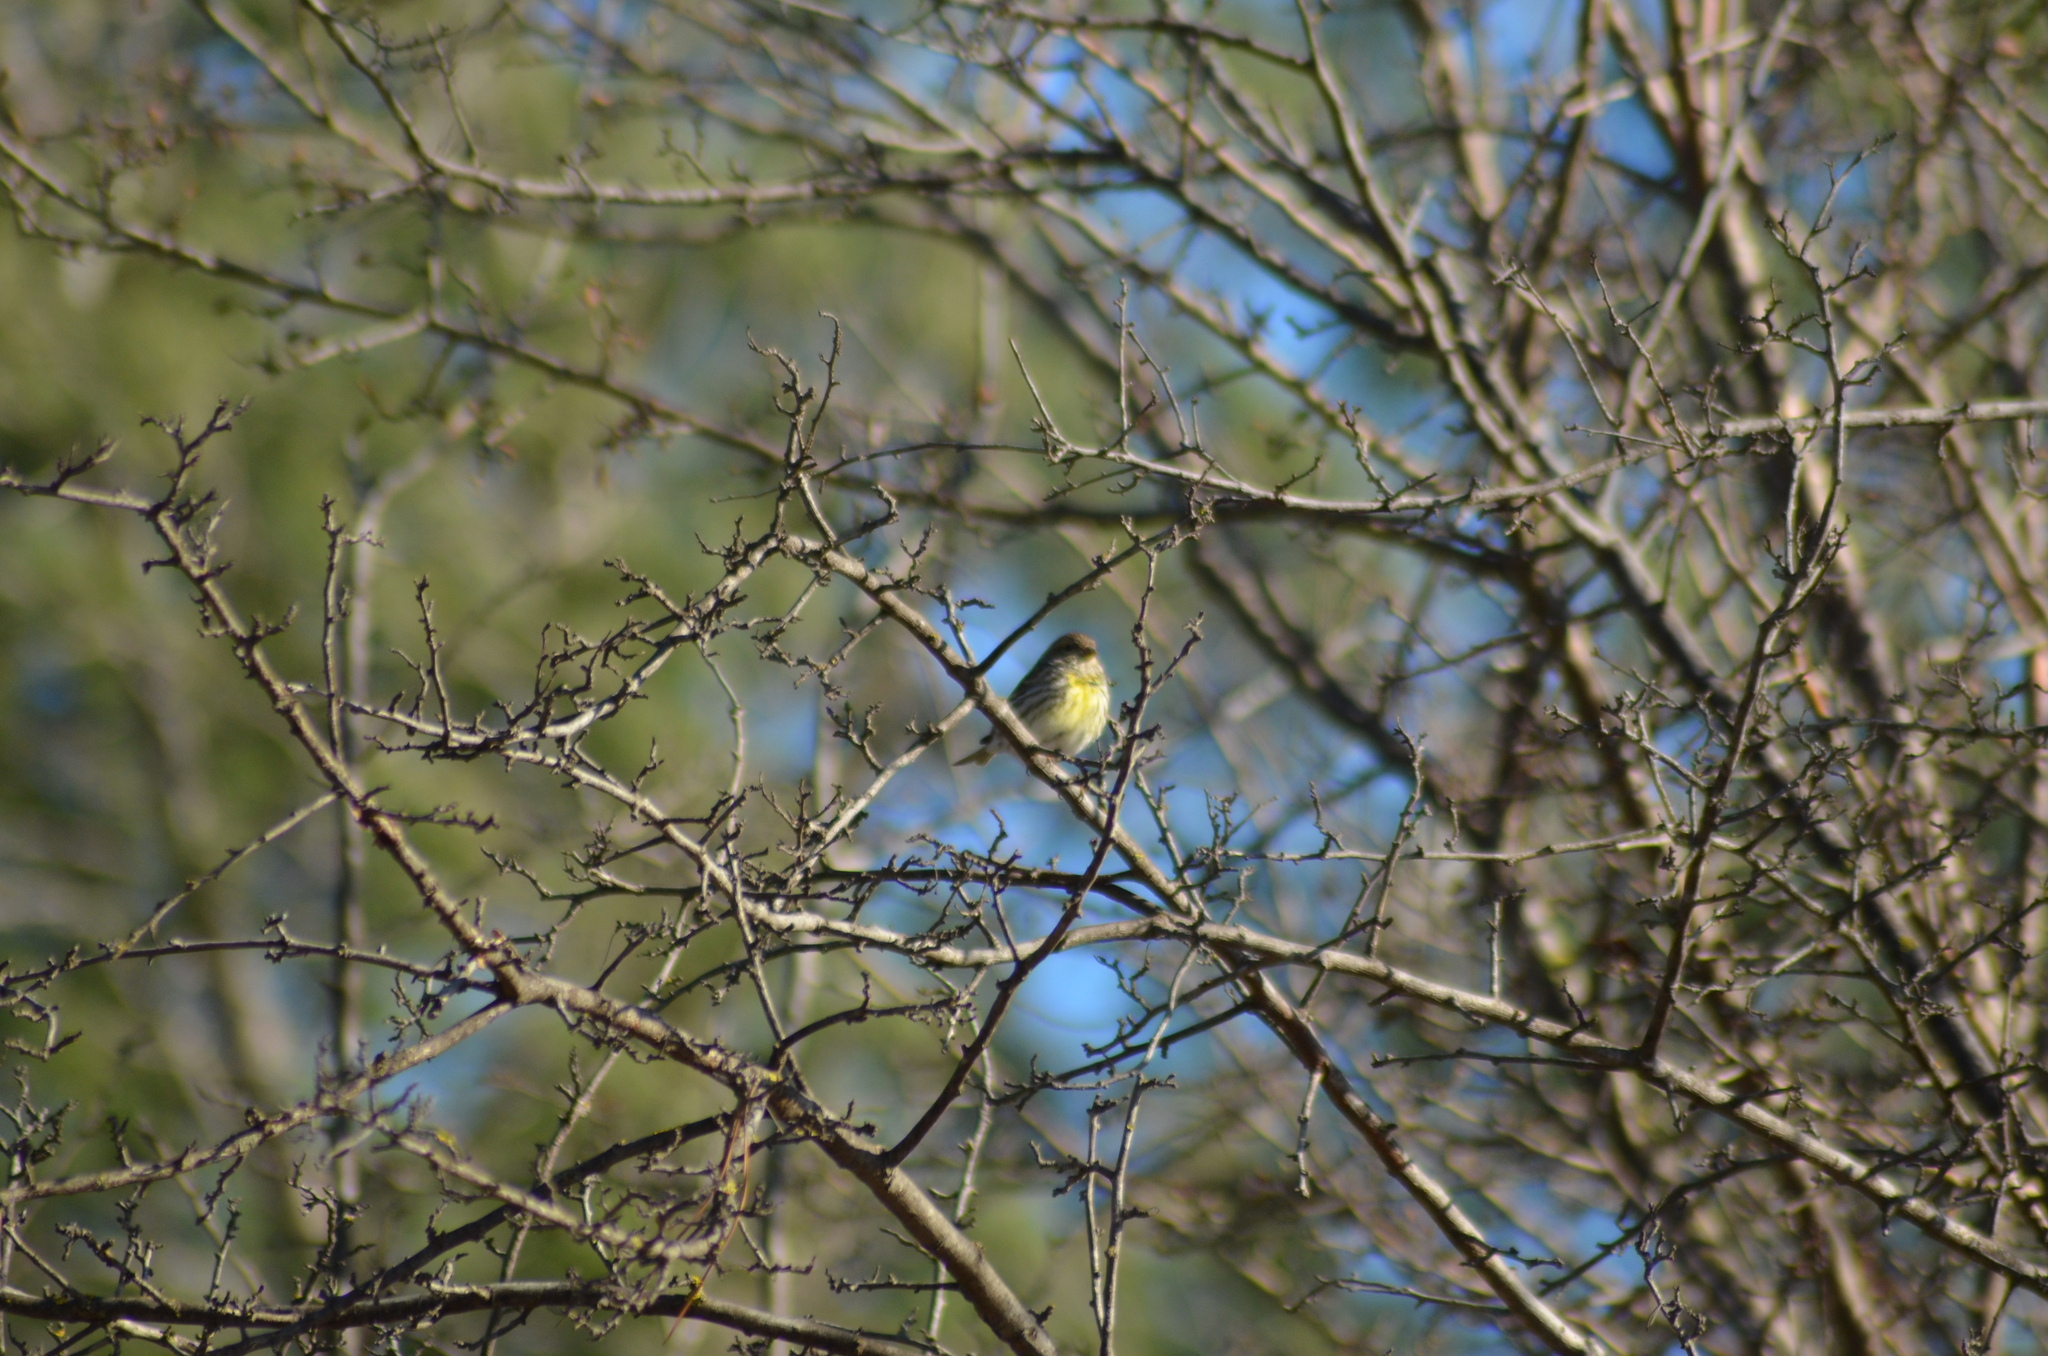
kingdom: Animalia
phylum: Chordata
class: Aves
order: Passeriformes
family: Fringillidae
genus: Serinus
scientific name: Serinus serinus
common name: European serin
